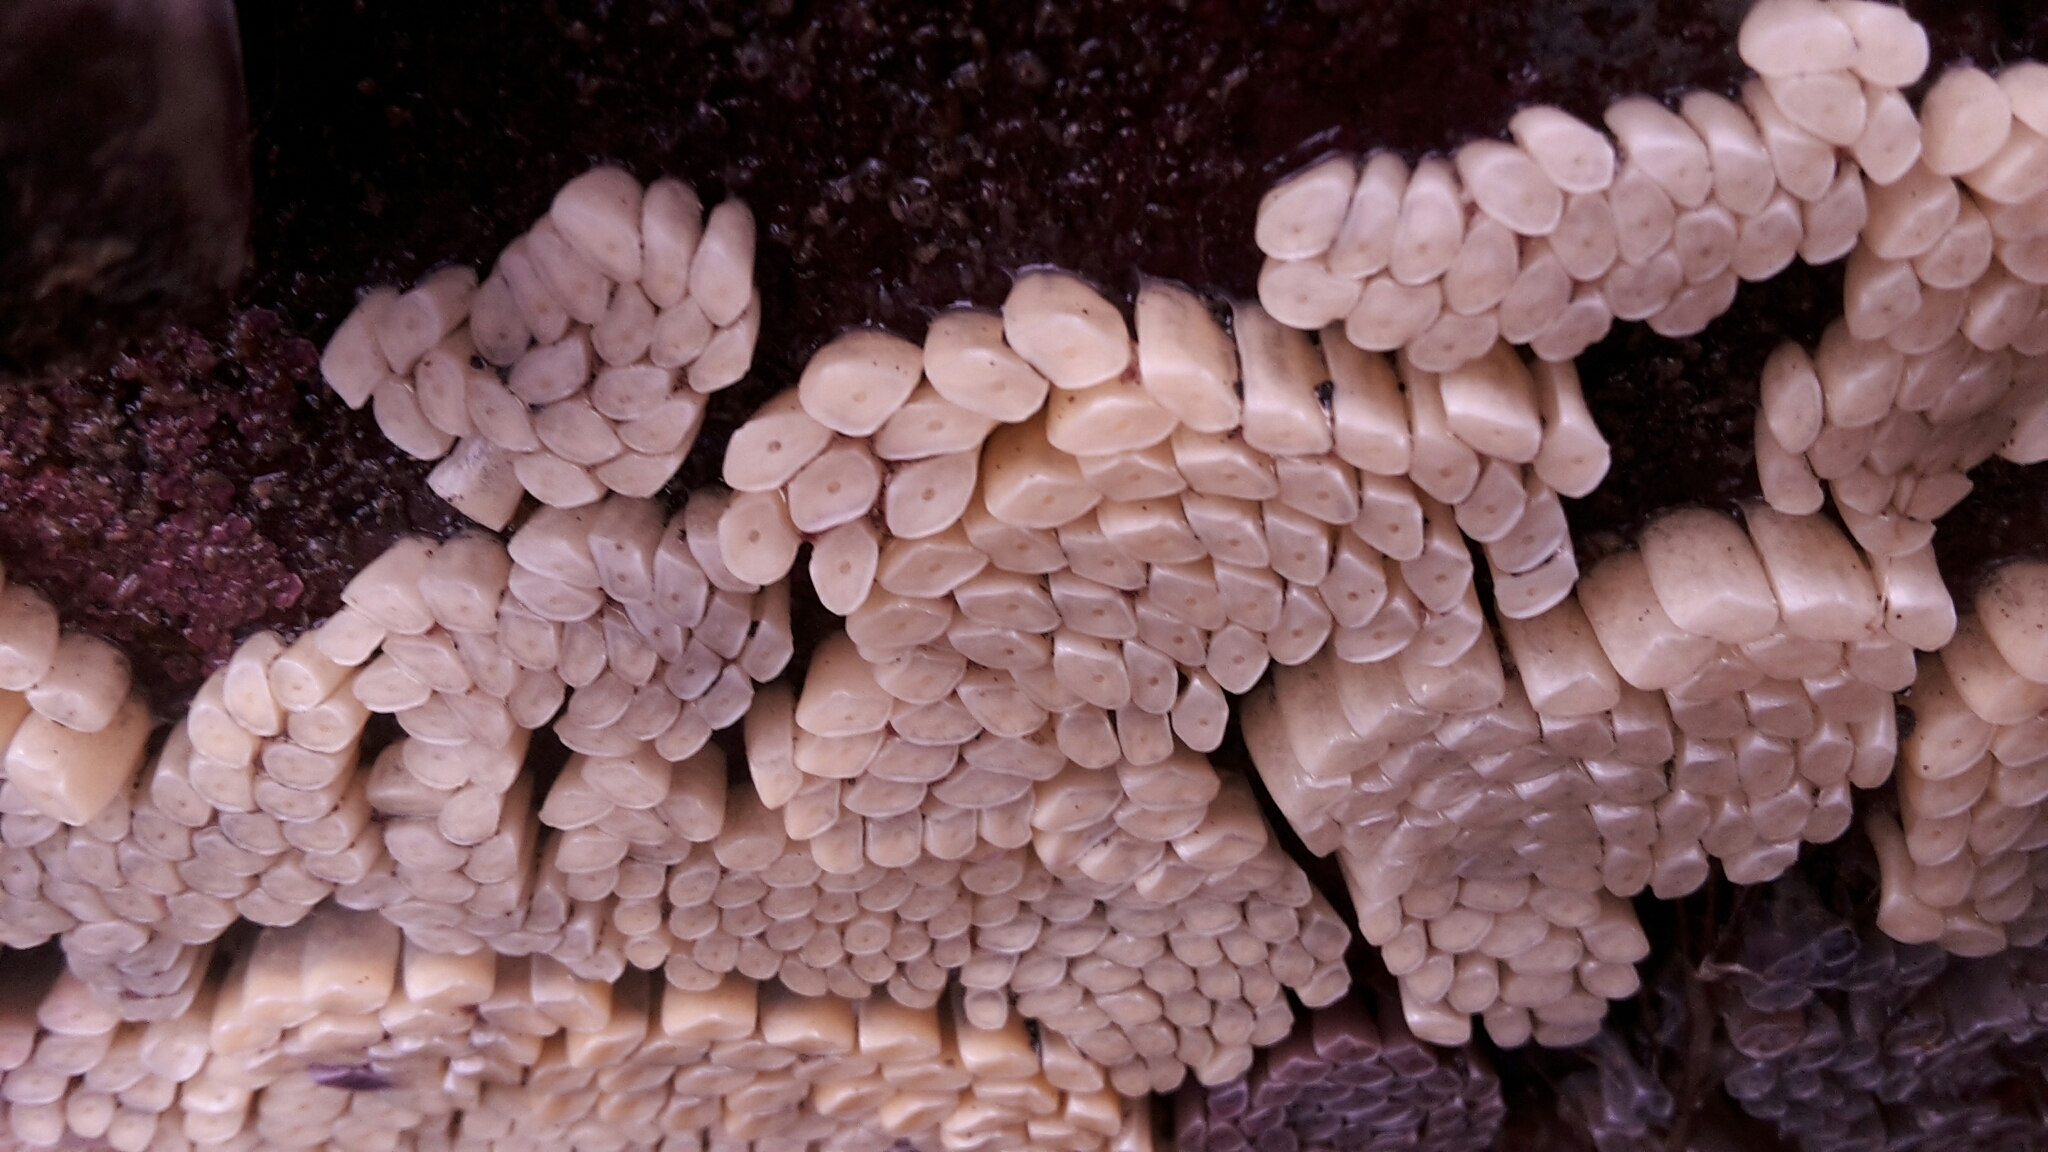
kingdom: Animalia
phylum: Mollusca
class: Gastropoda
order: Neogastropoda
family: Muricidae
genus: Dicathais
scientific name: Dicathais orbita
